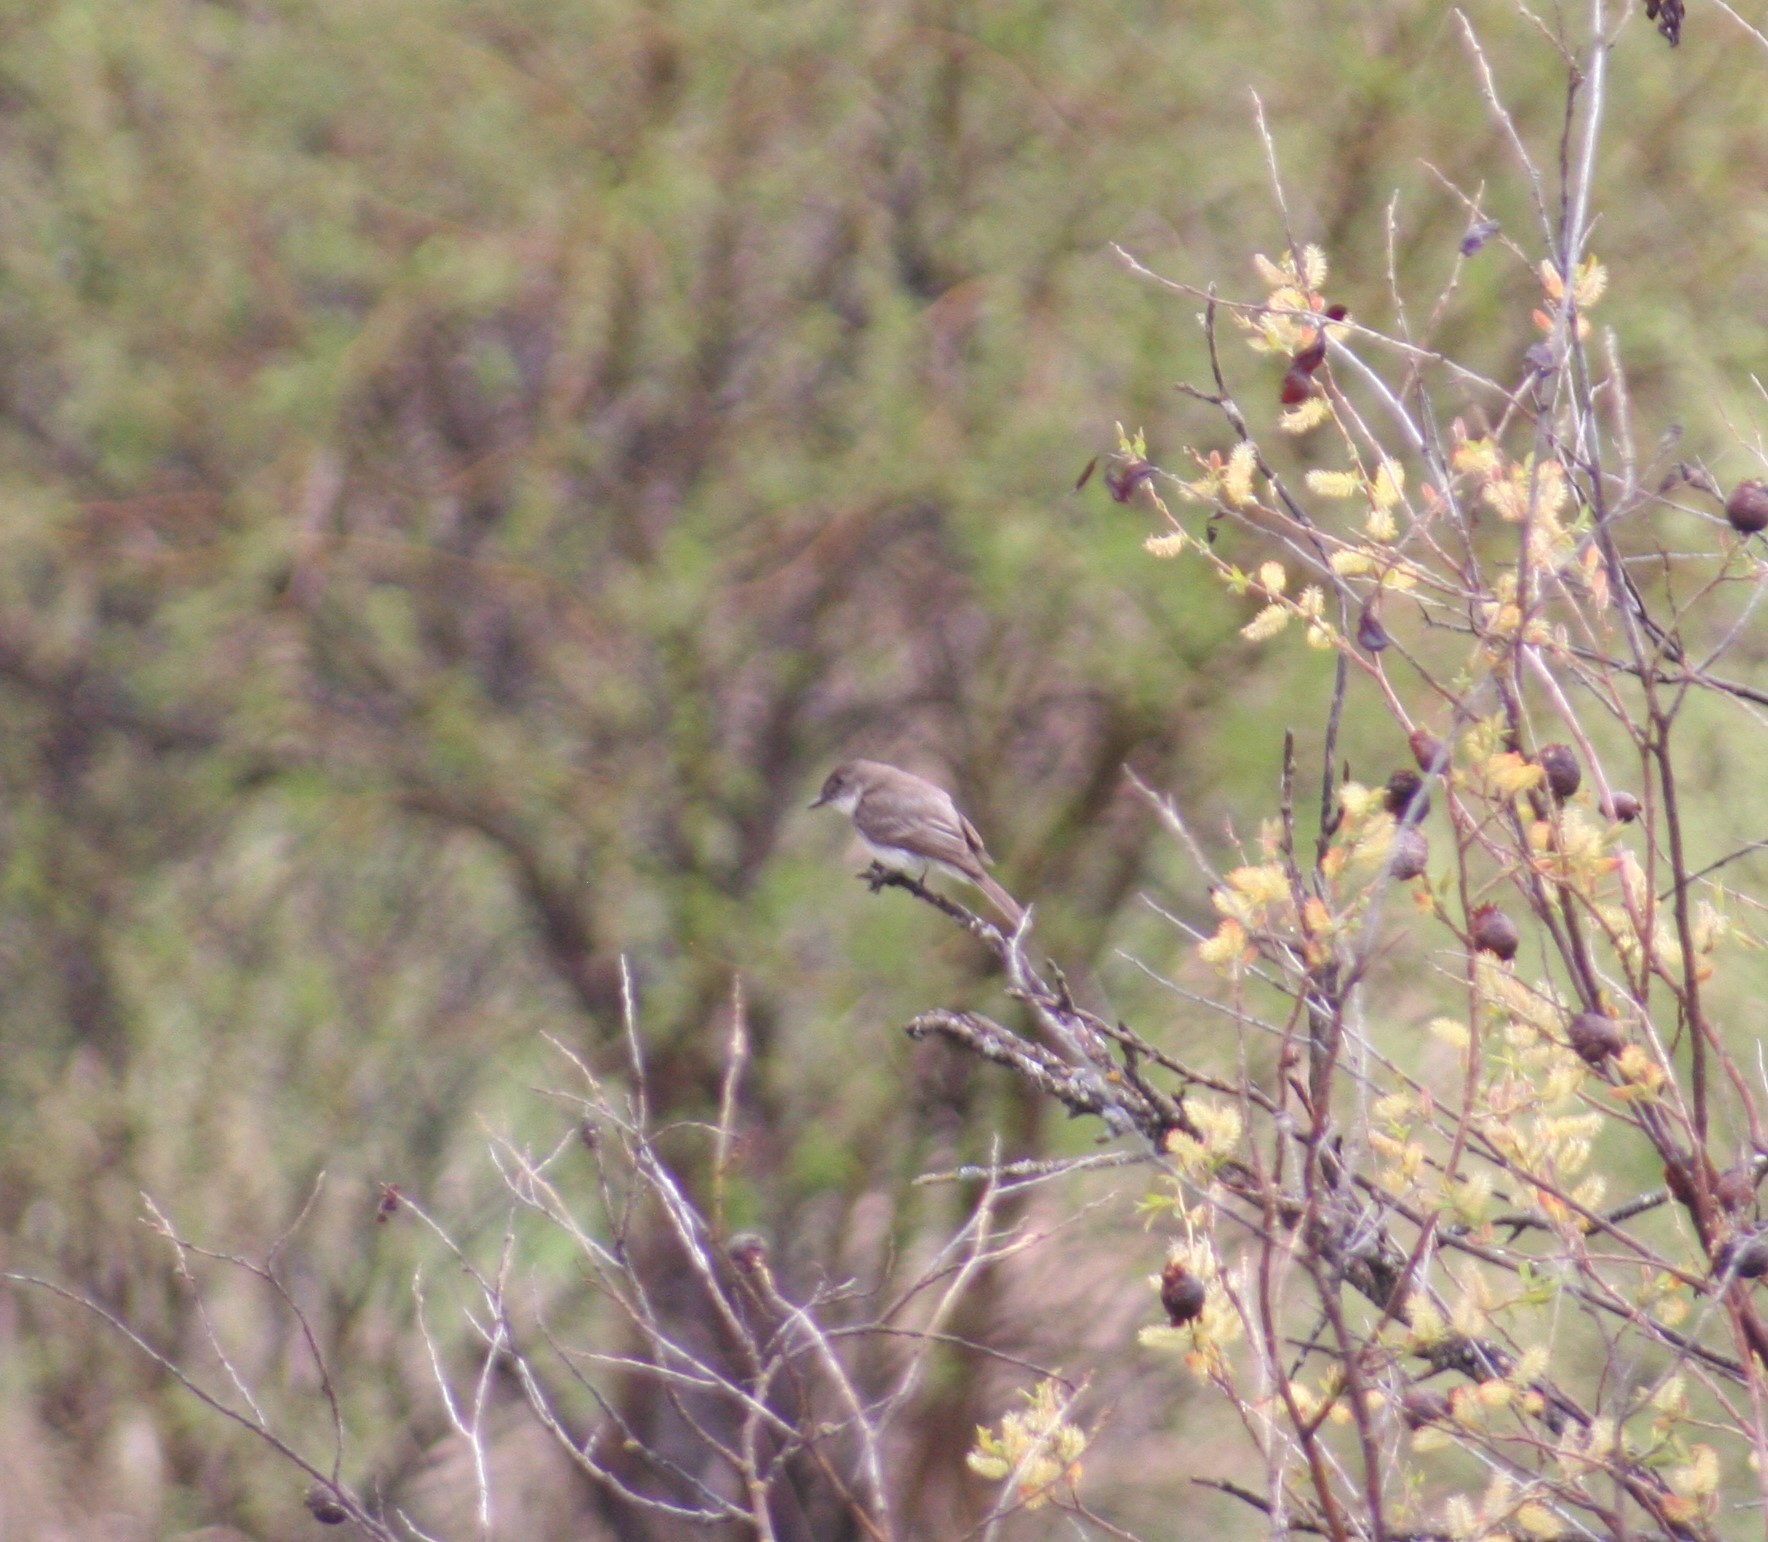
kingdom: Animalia
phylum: Chordata
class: Aves
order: Passeriformes
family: Tyrannidae
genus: Sayornis
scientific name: Sayornis phoebe
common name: Eastern phoebe
